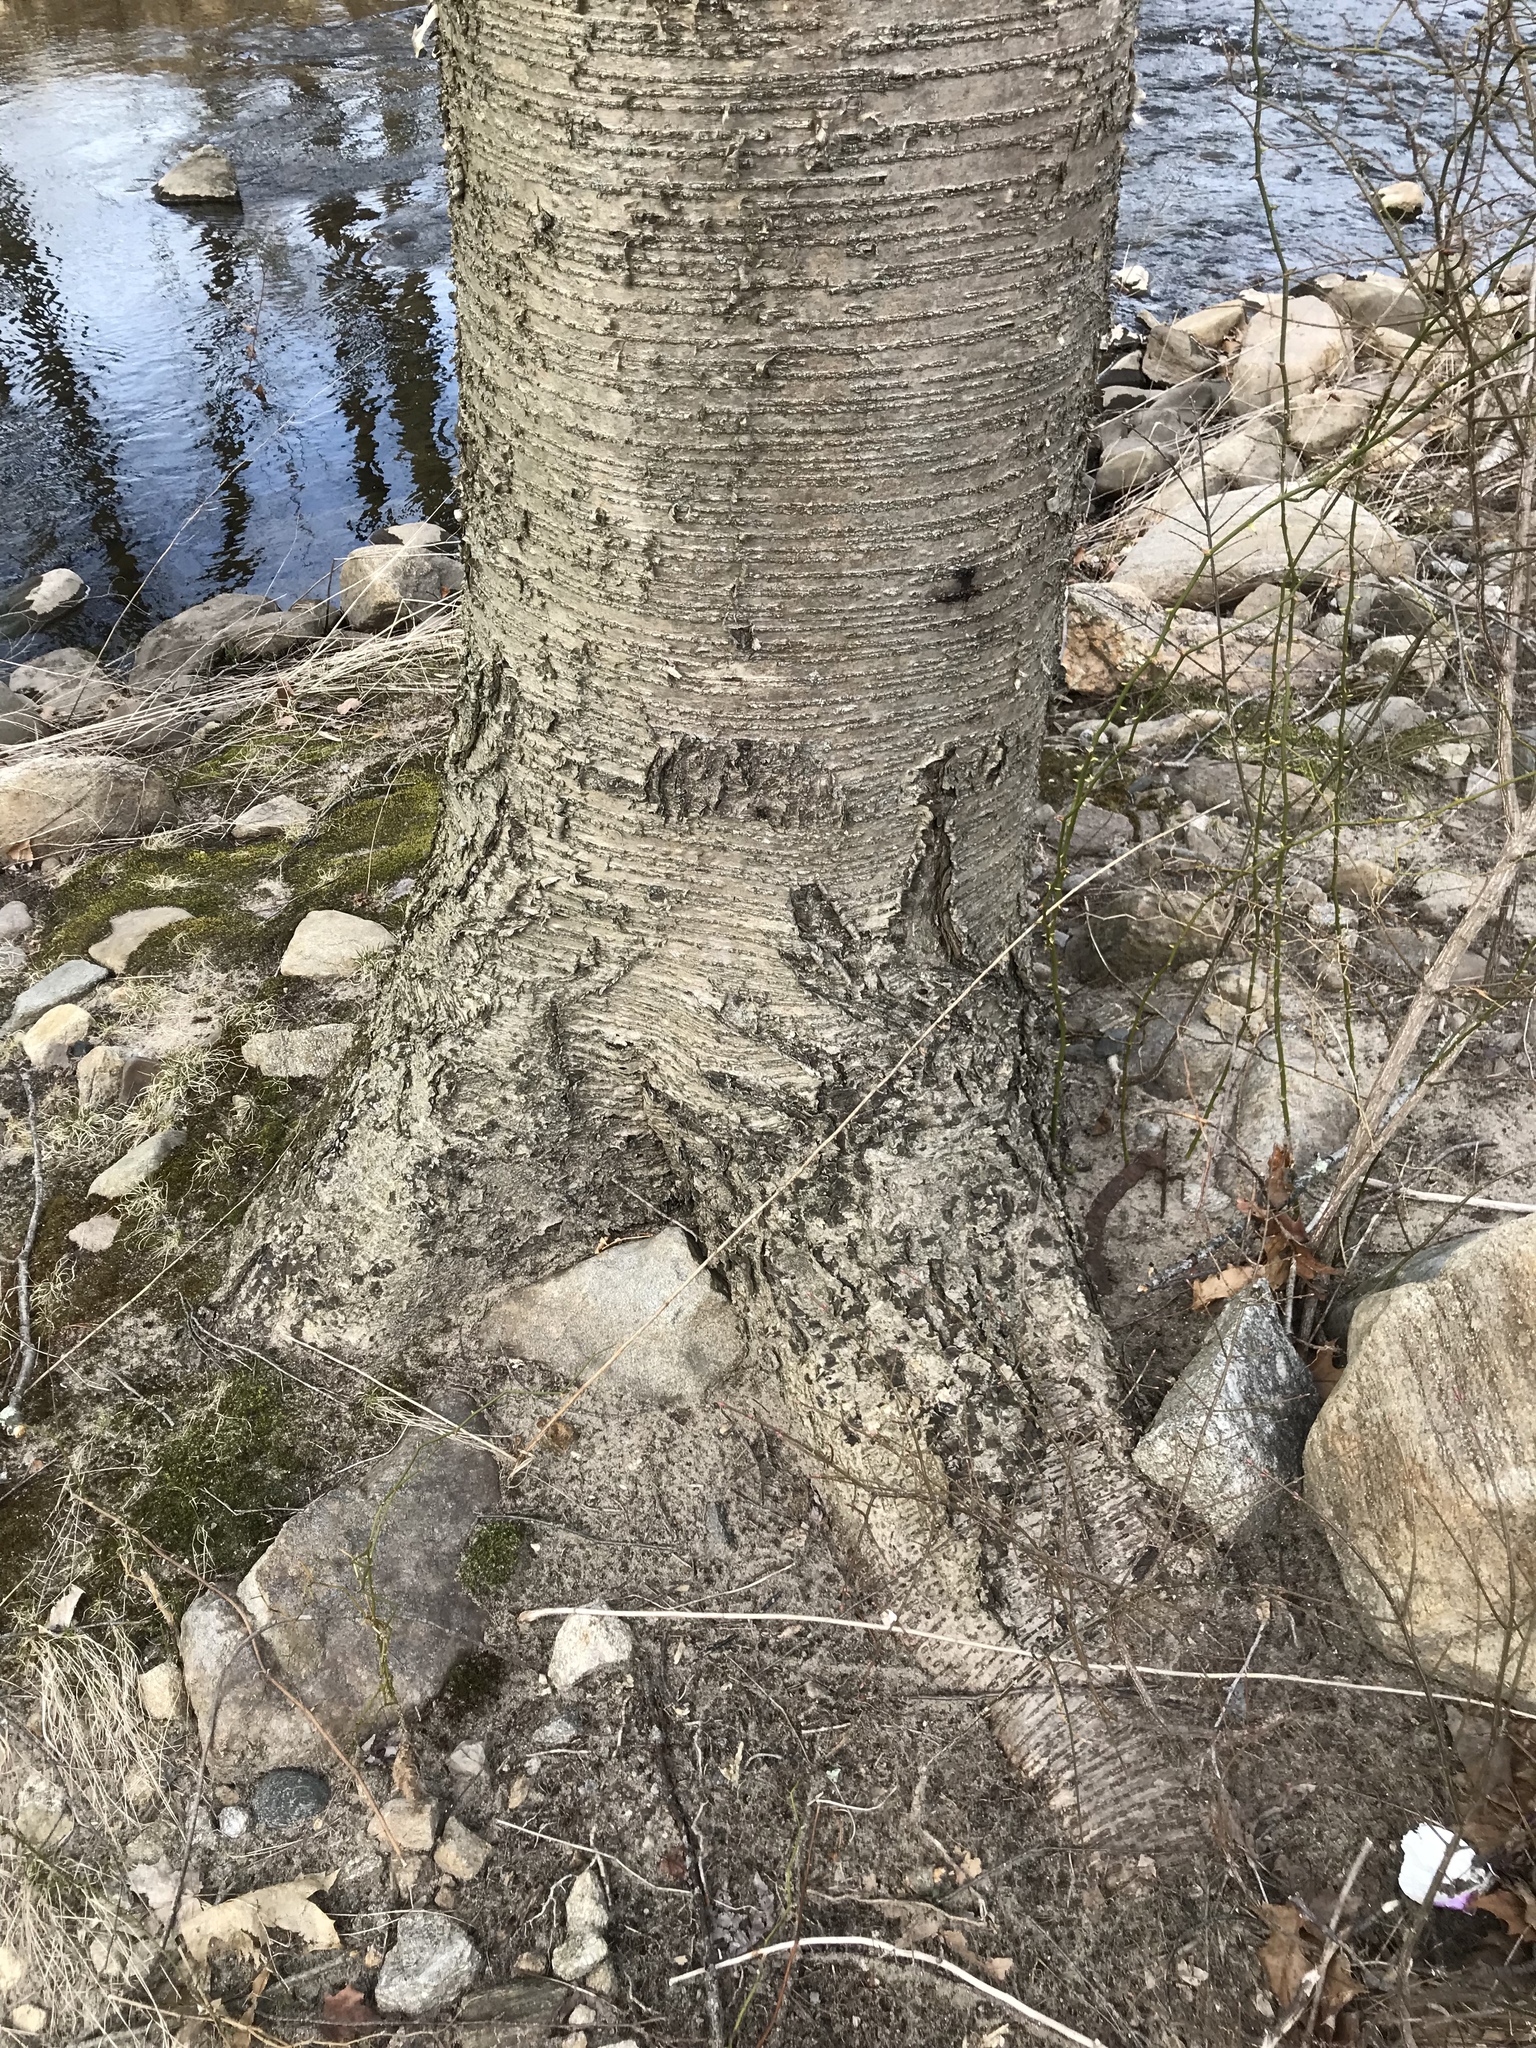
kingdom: Plantae
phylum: Tracheophyta
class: Magnoliopsida
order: Fagales
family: Betulaceae
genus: Betula
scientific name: Betula alleghaniensis
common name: Yellow birch
